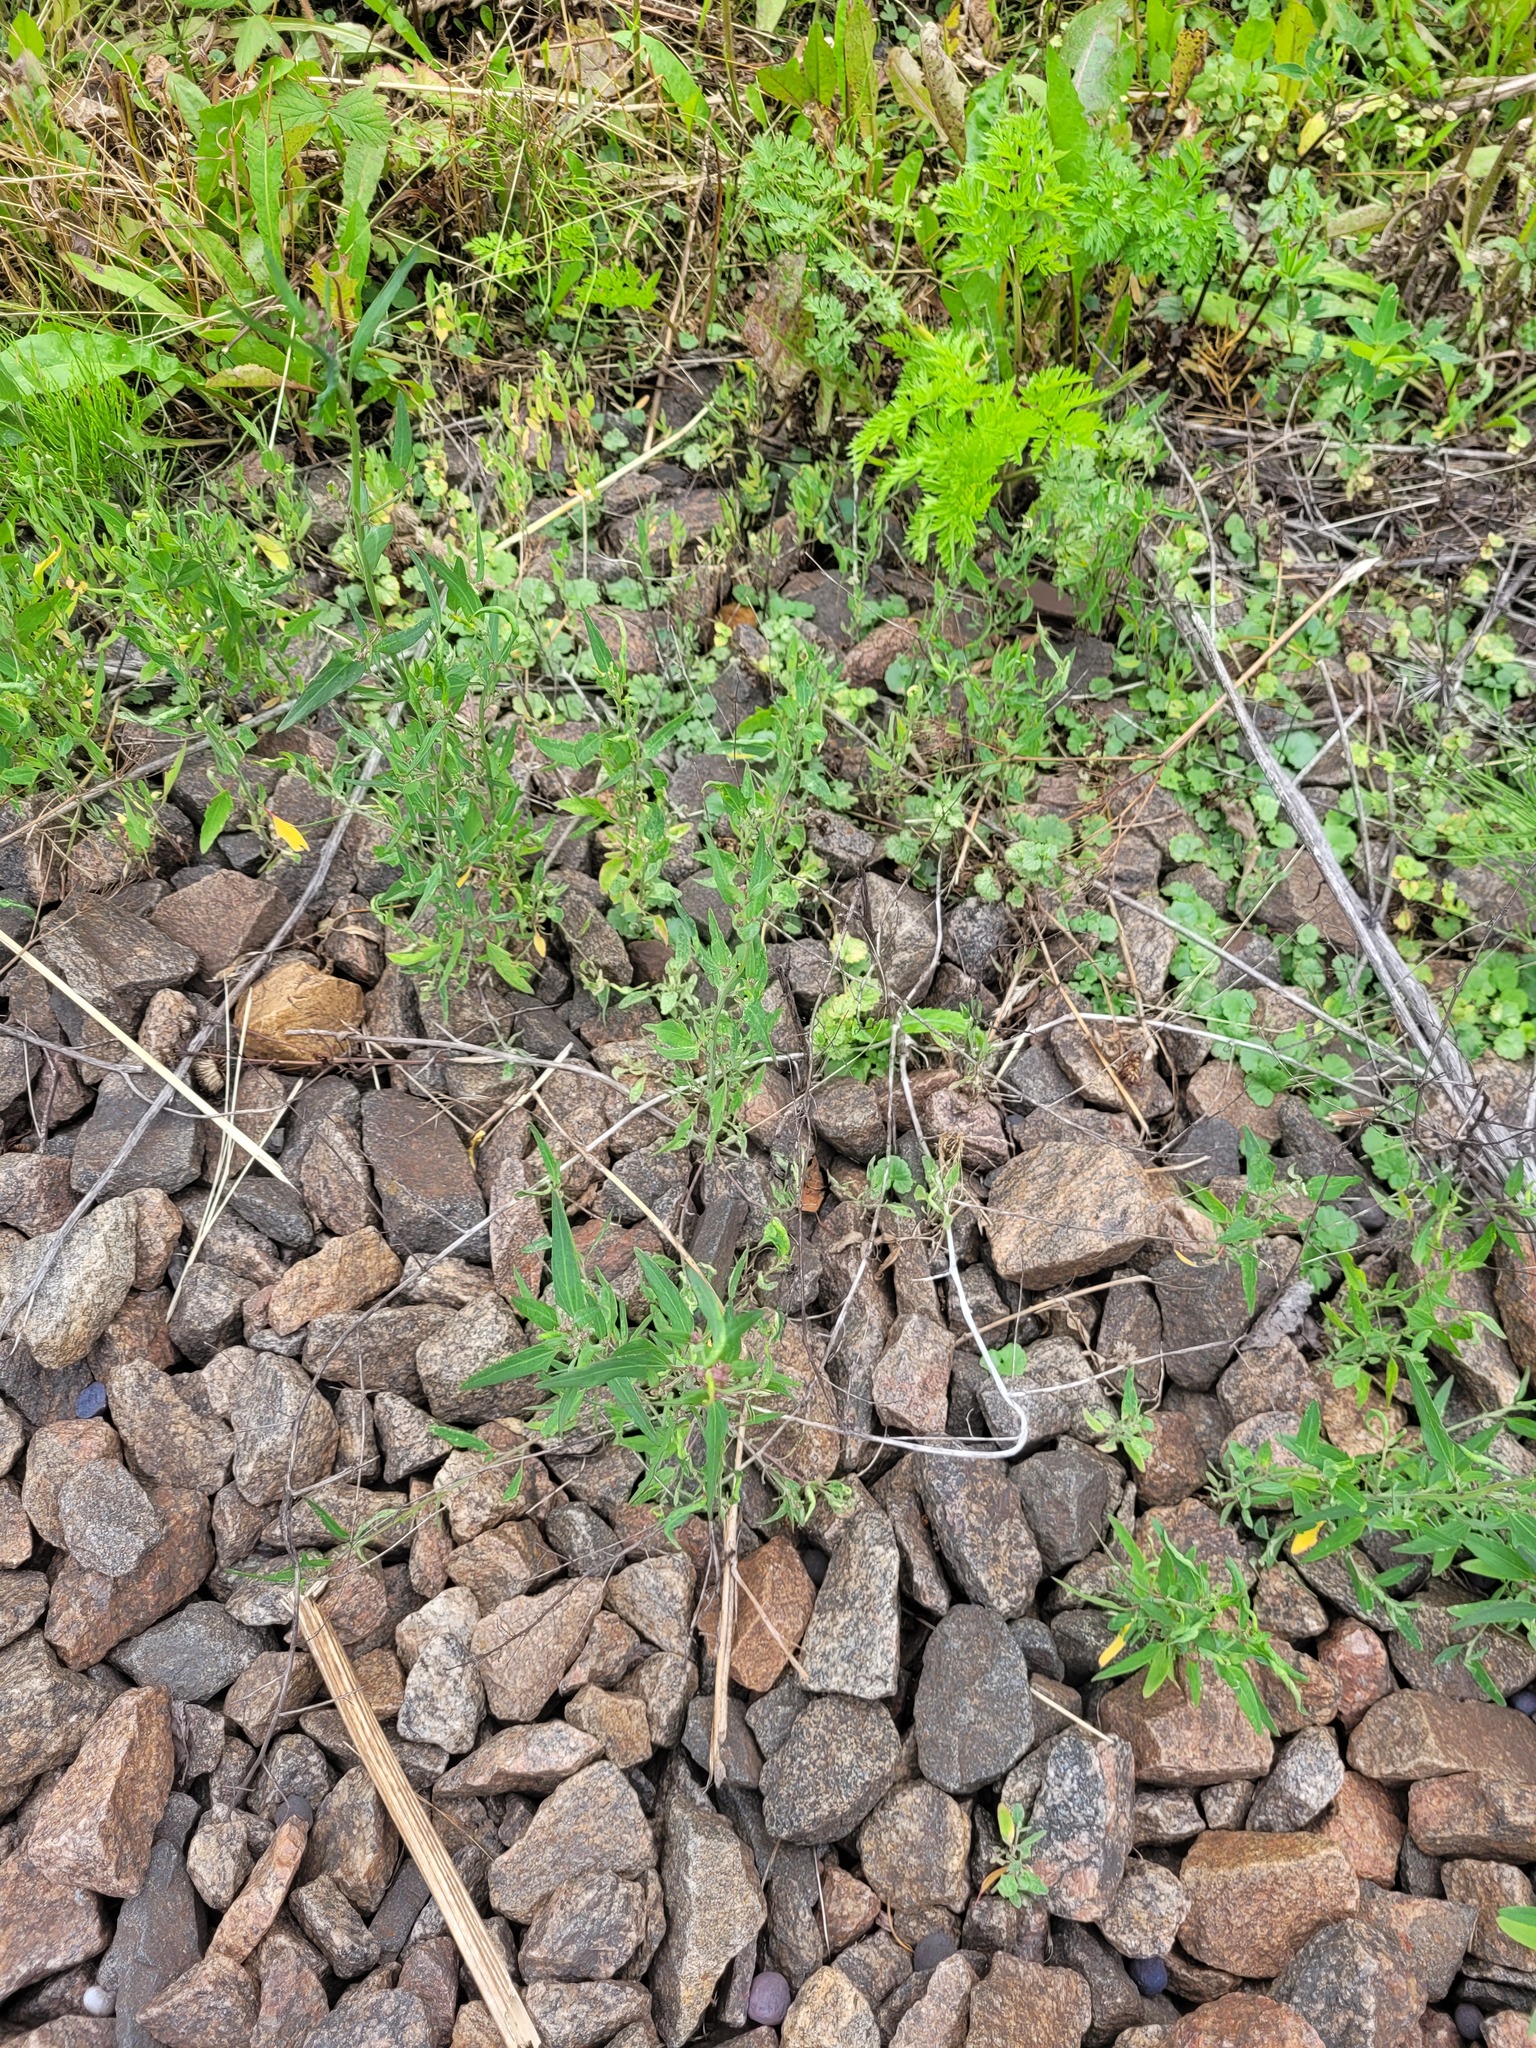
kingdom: Plantae
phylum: Tracheophyta
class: Magnoliopsida
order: Caryophyllales
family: Amaranthaceae
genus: Atriplex
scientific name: Atriplex patula
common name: Common orache
